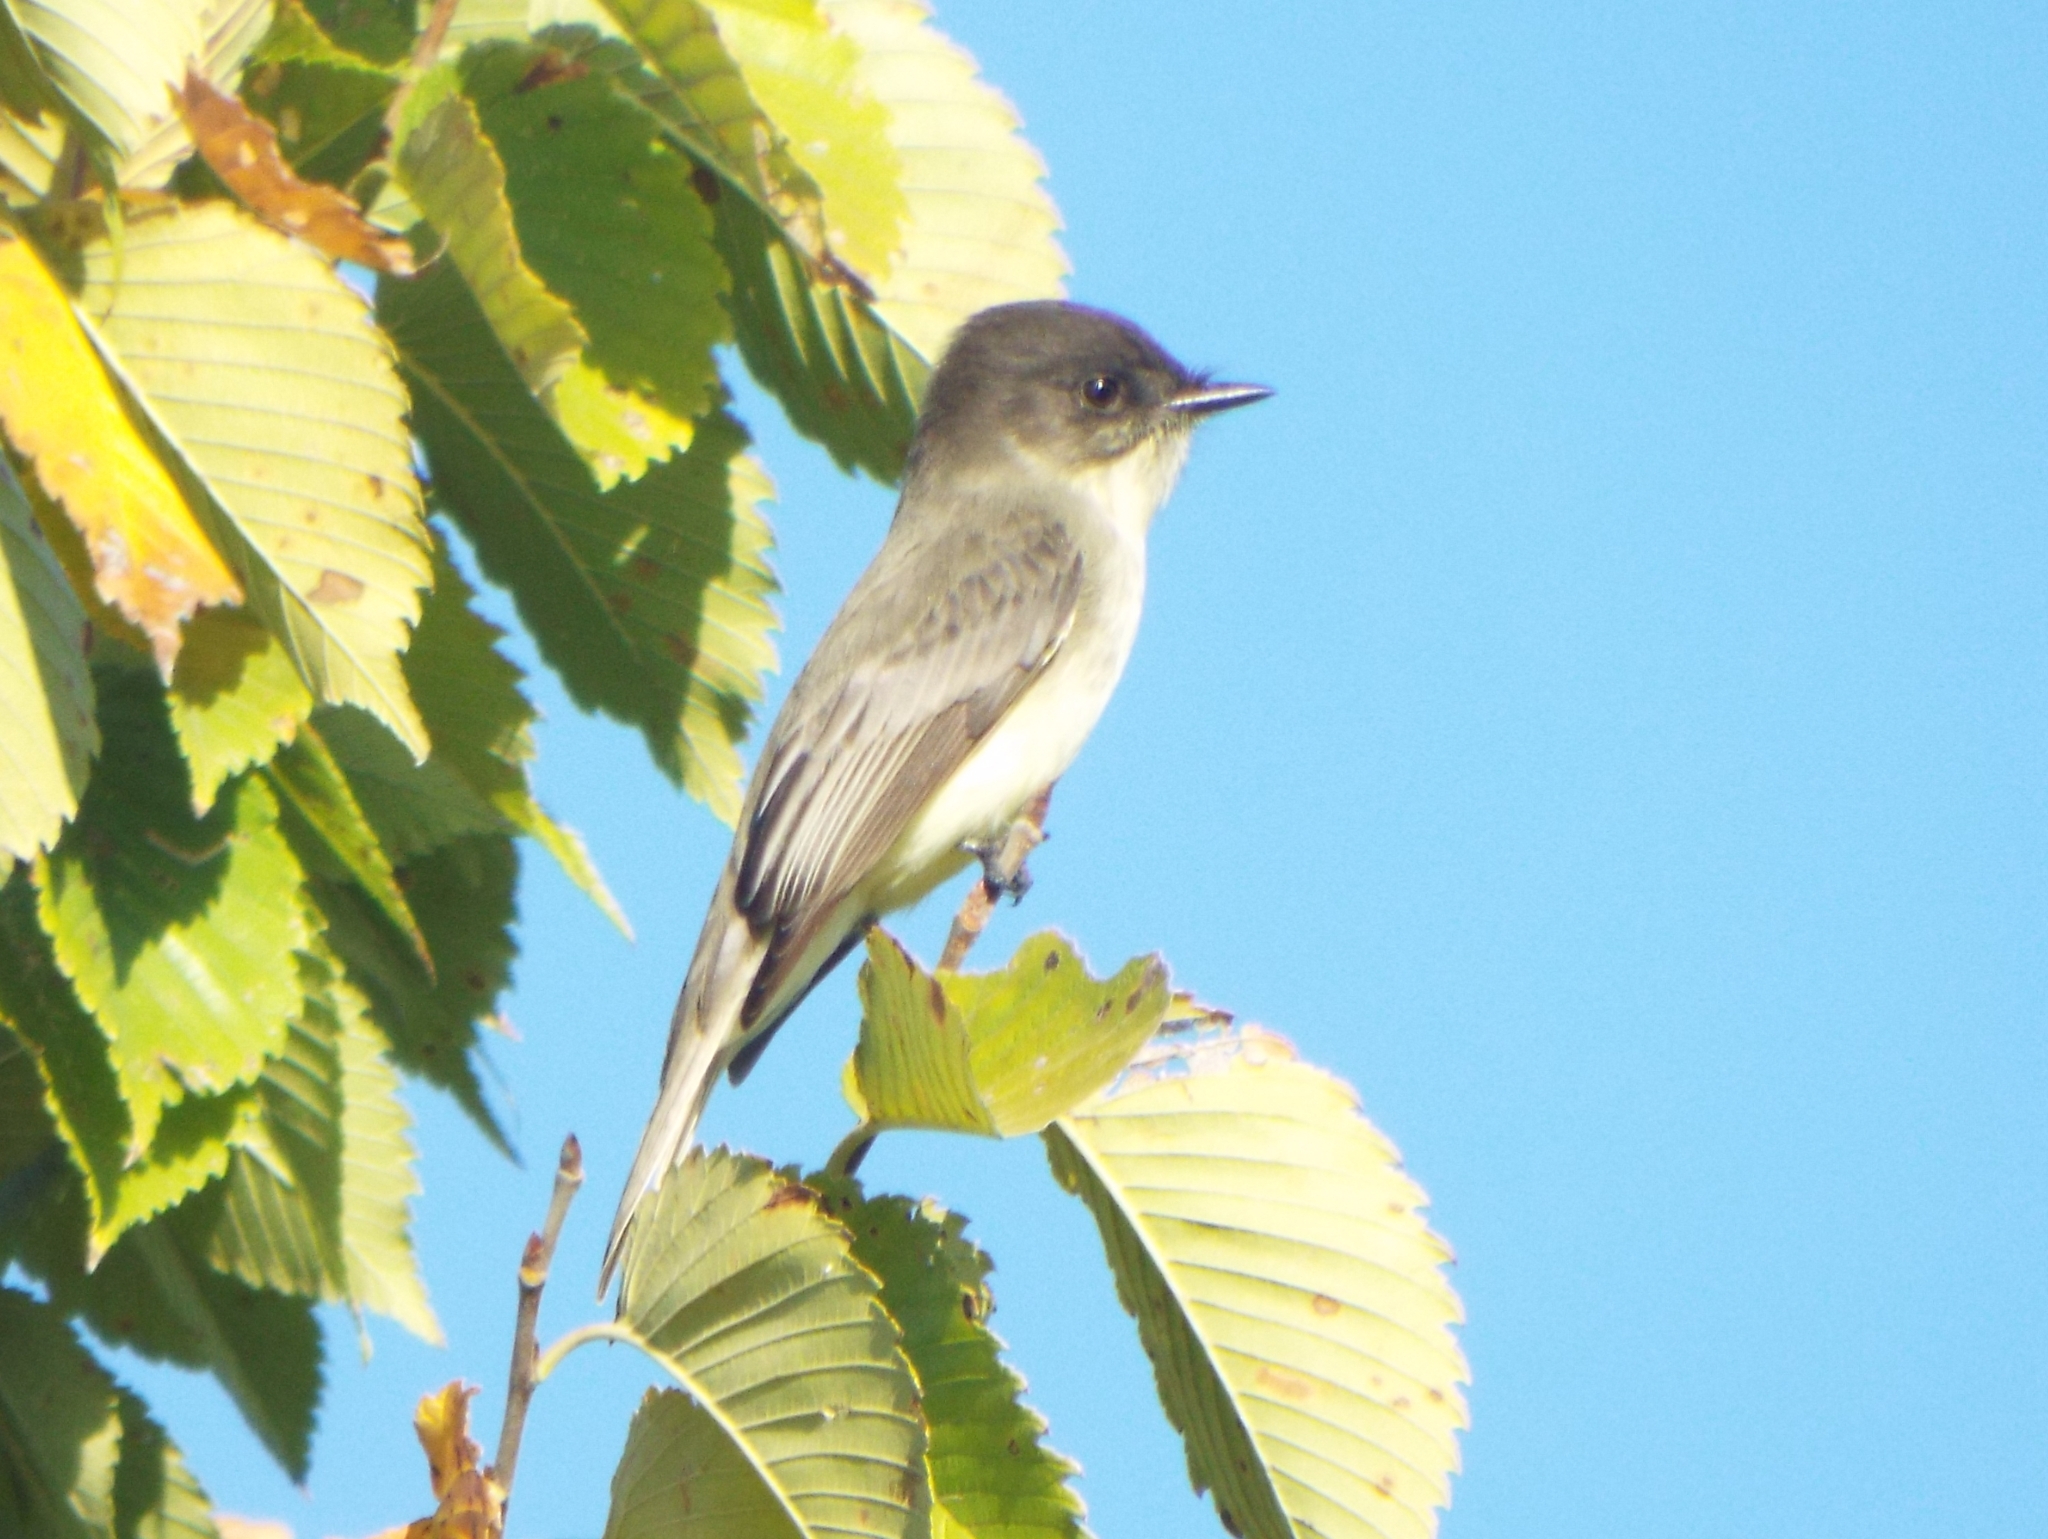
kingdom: Animalia
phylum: Chordata
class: Aves
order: Passeriformes
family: Tyrannidae
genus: Sayornis
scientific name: Sayornis phoebe
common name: Eastern phoebe
